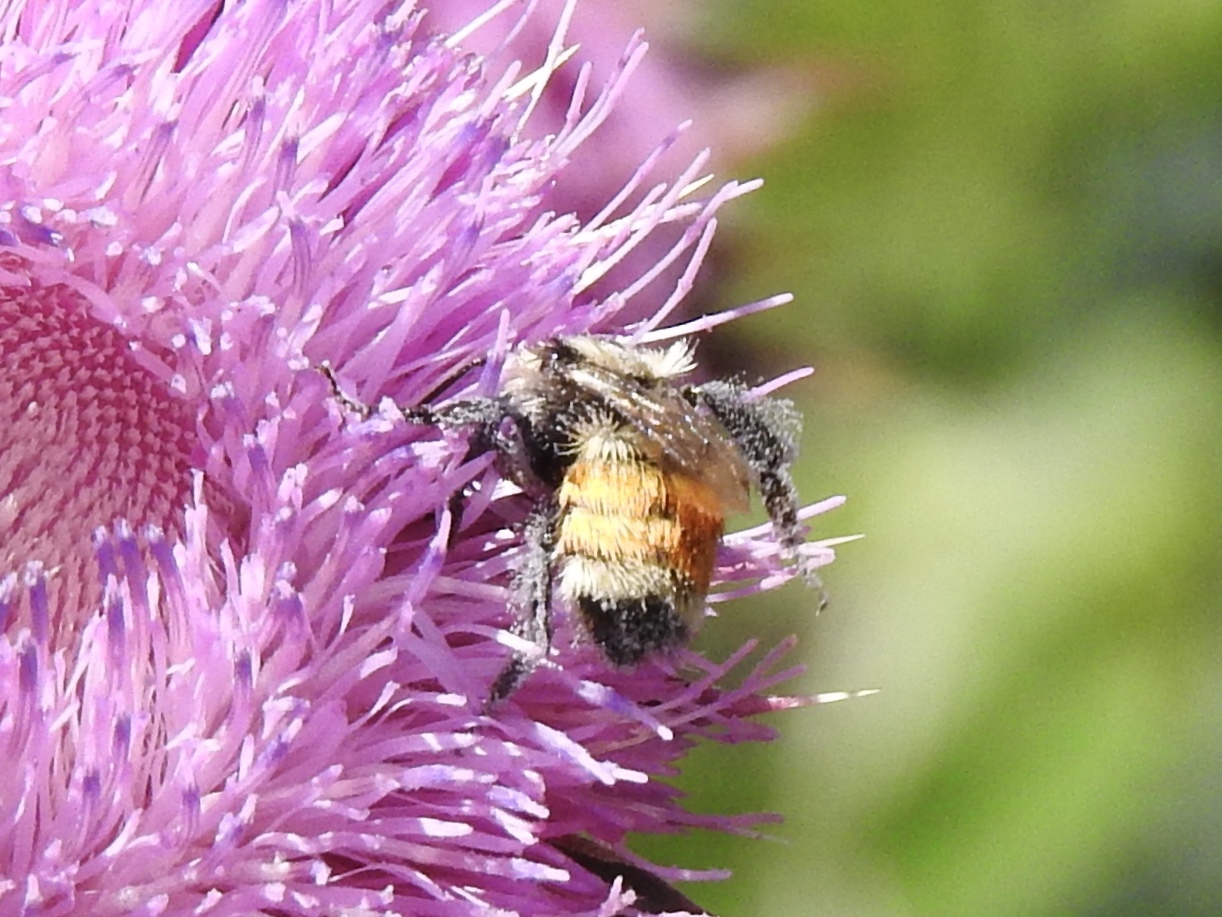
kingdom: Animalia
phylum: Arthropoda
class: Insecta
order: Hymenoptera
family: Apidae
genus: Bombus
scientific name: Bombus huntii
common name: Hunt bumble bee
